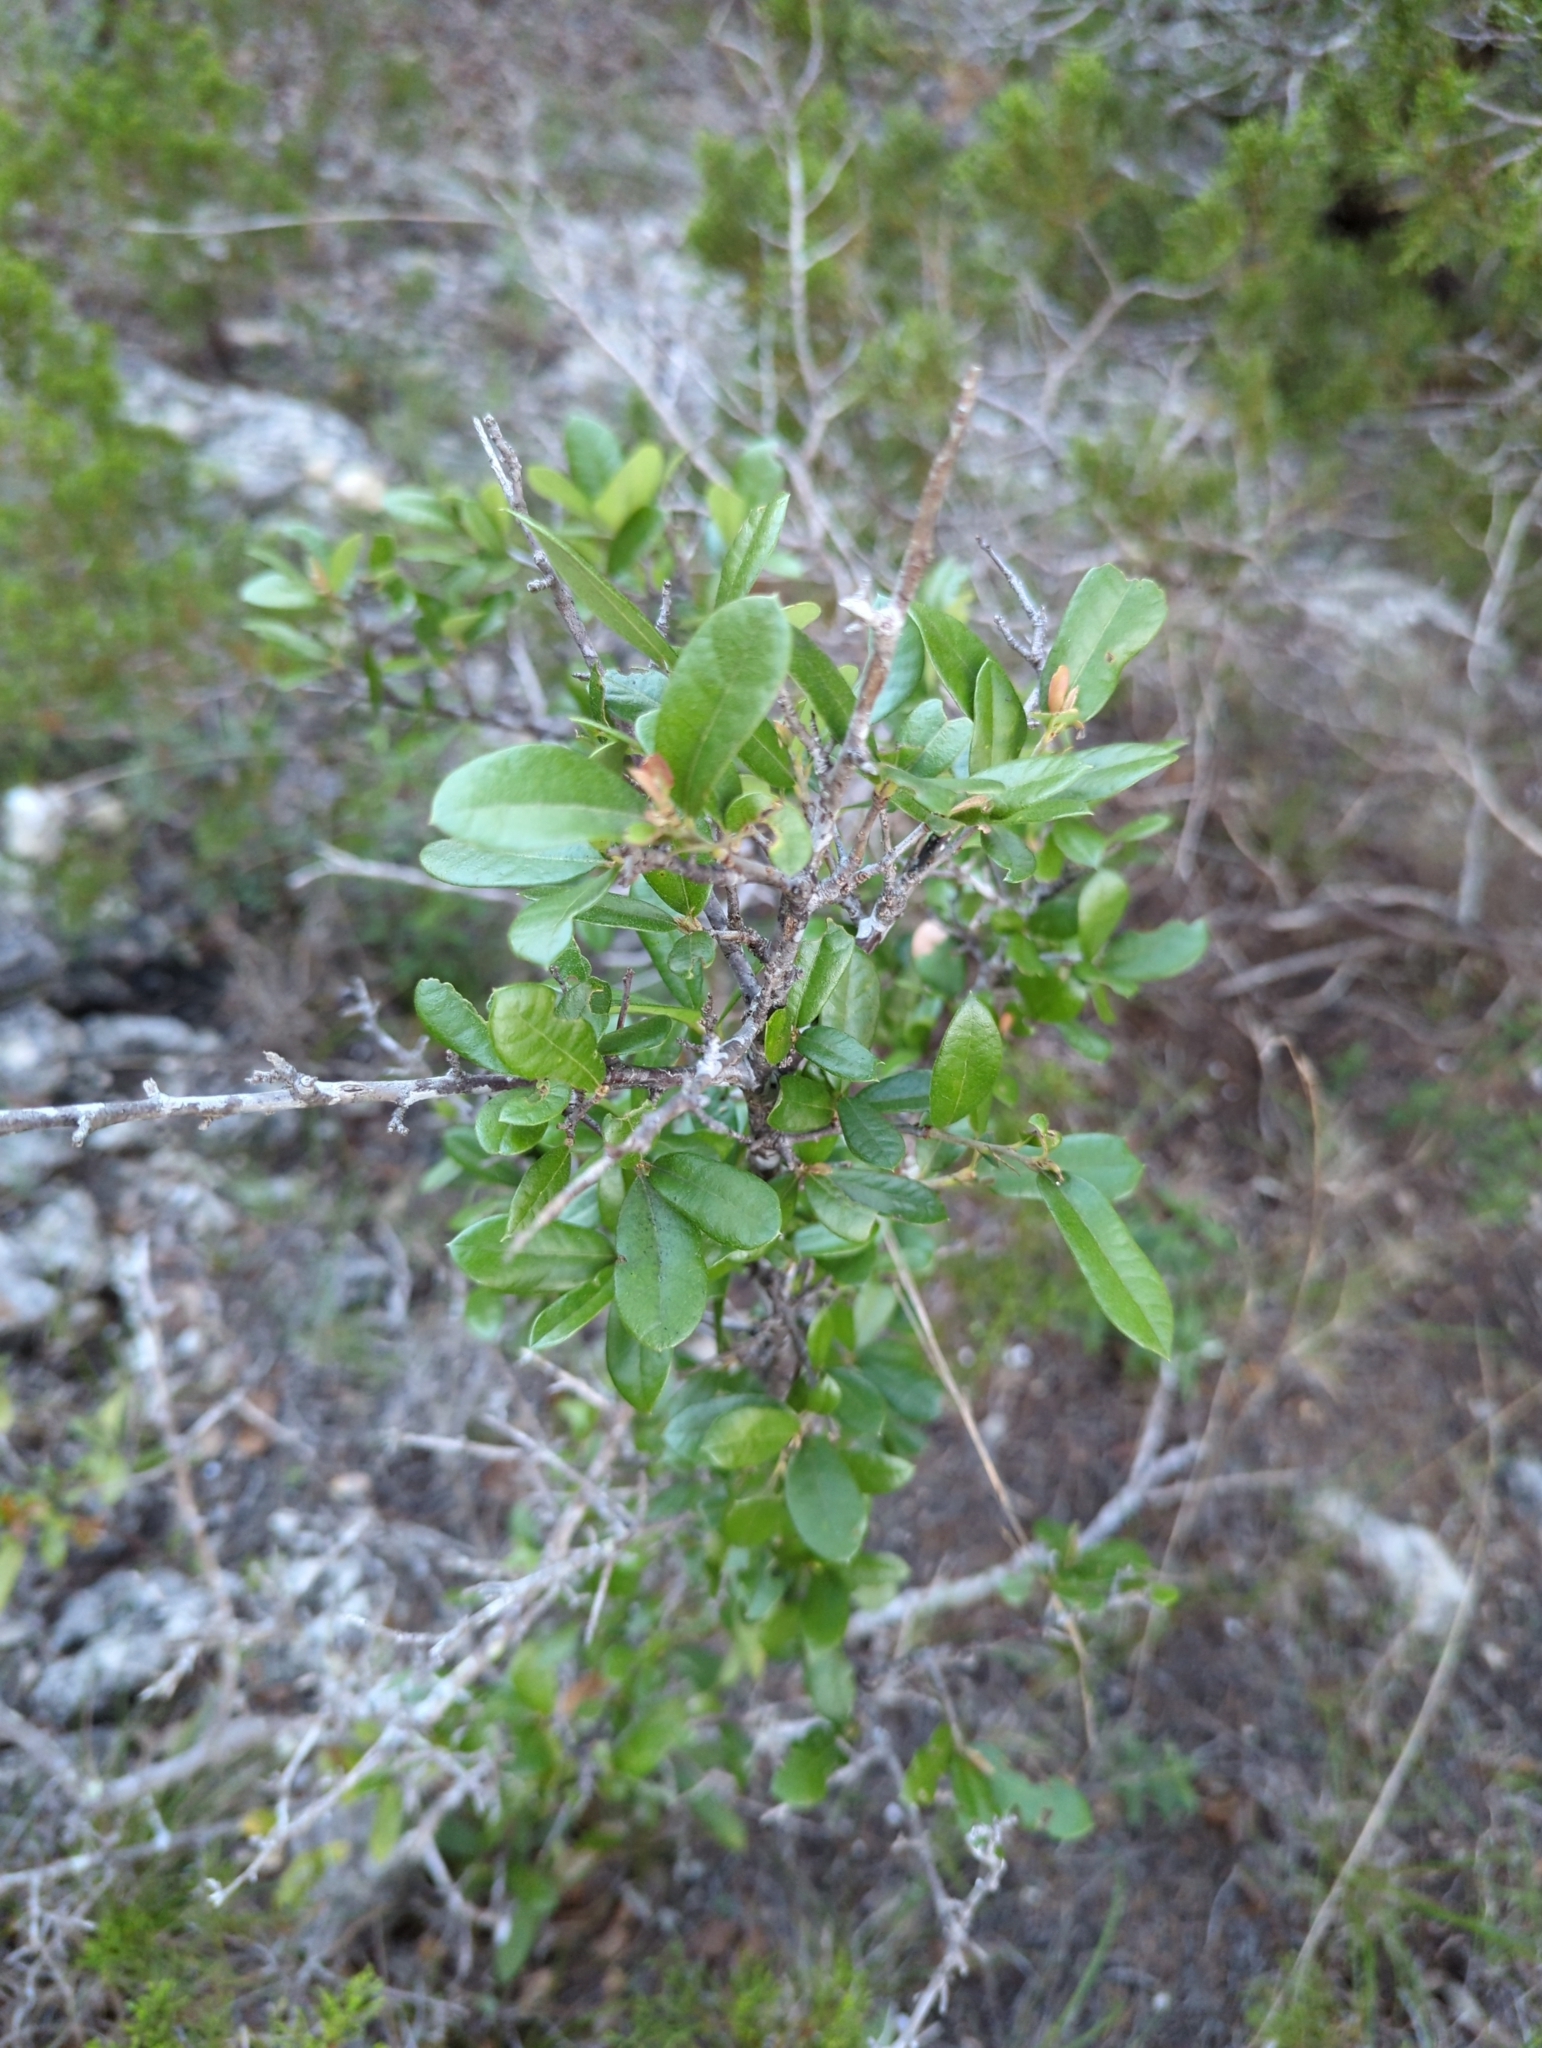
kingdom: Plantae
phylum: Tracheophyta
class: Magnoliopsida
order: Fagales
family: Fagaceae
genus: Quercus
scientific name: Quercus fusiformis
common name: Texas live oak
